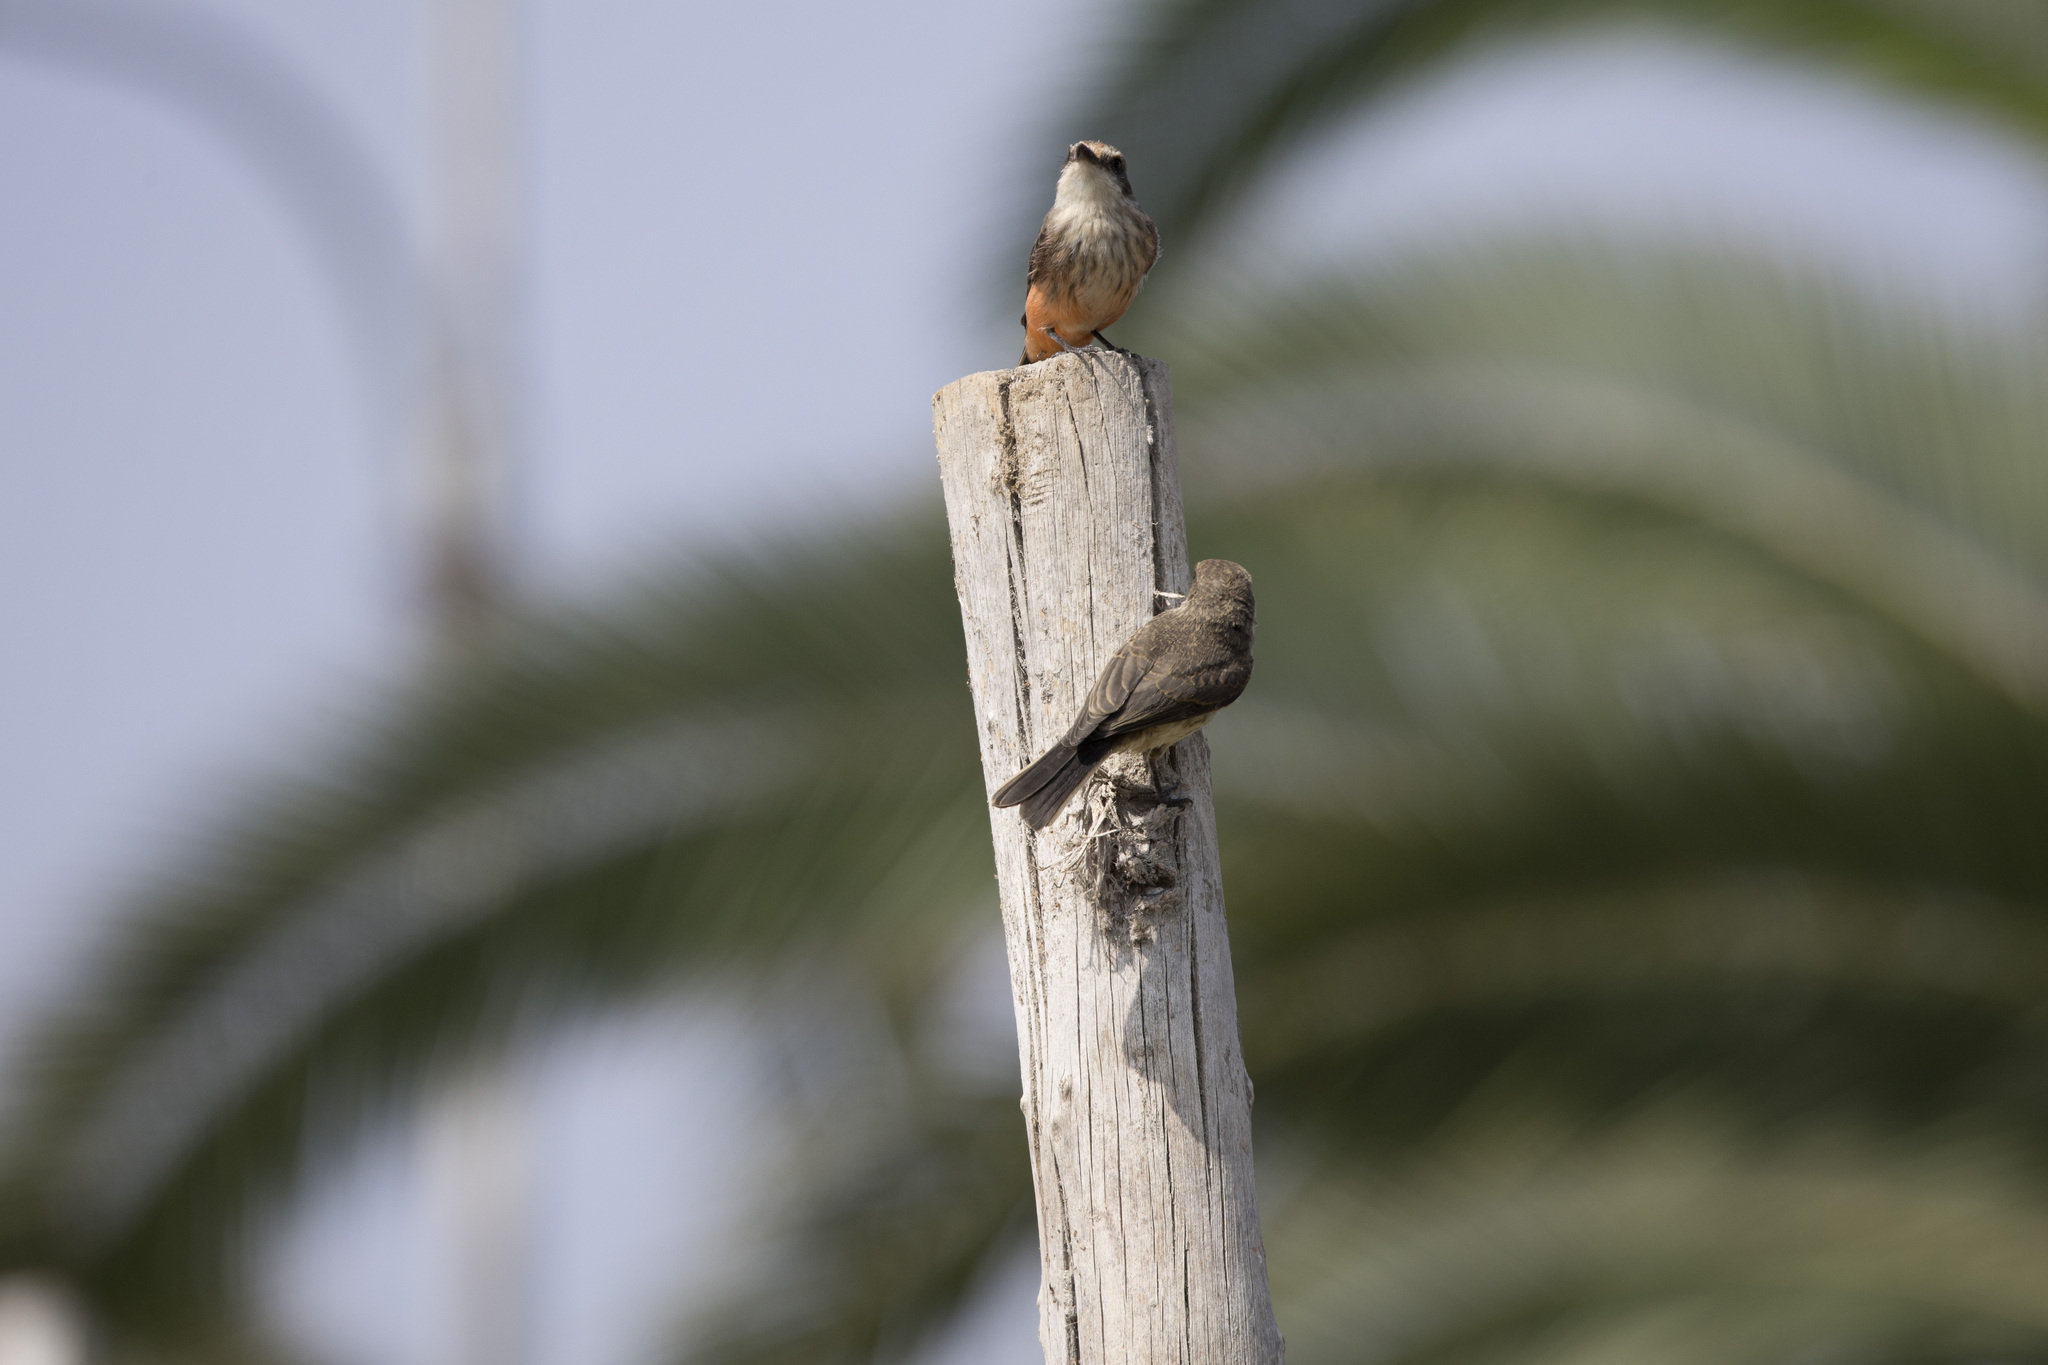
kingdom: Animalia
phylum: Chordata
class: Aves
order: Passeriformes
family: Tyrannidae
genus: Pyrocephalus
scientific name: Pyrocephalus rubinus
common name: Vermilion flycatcher
